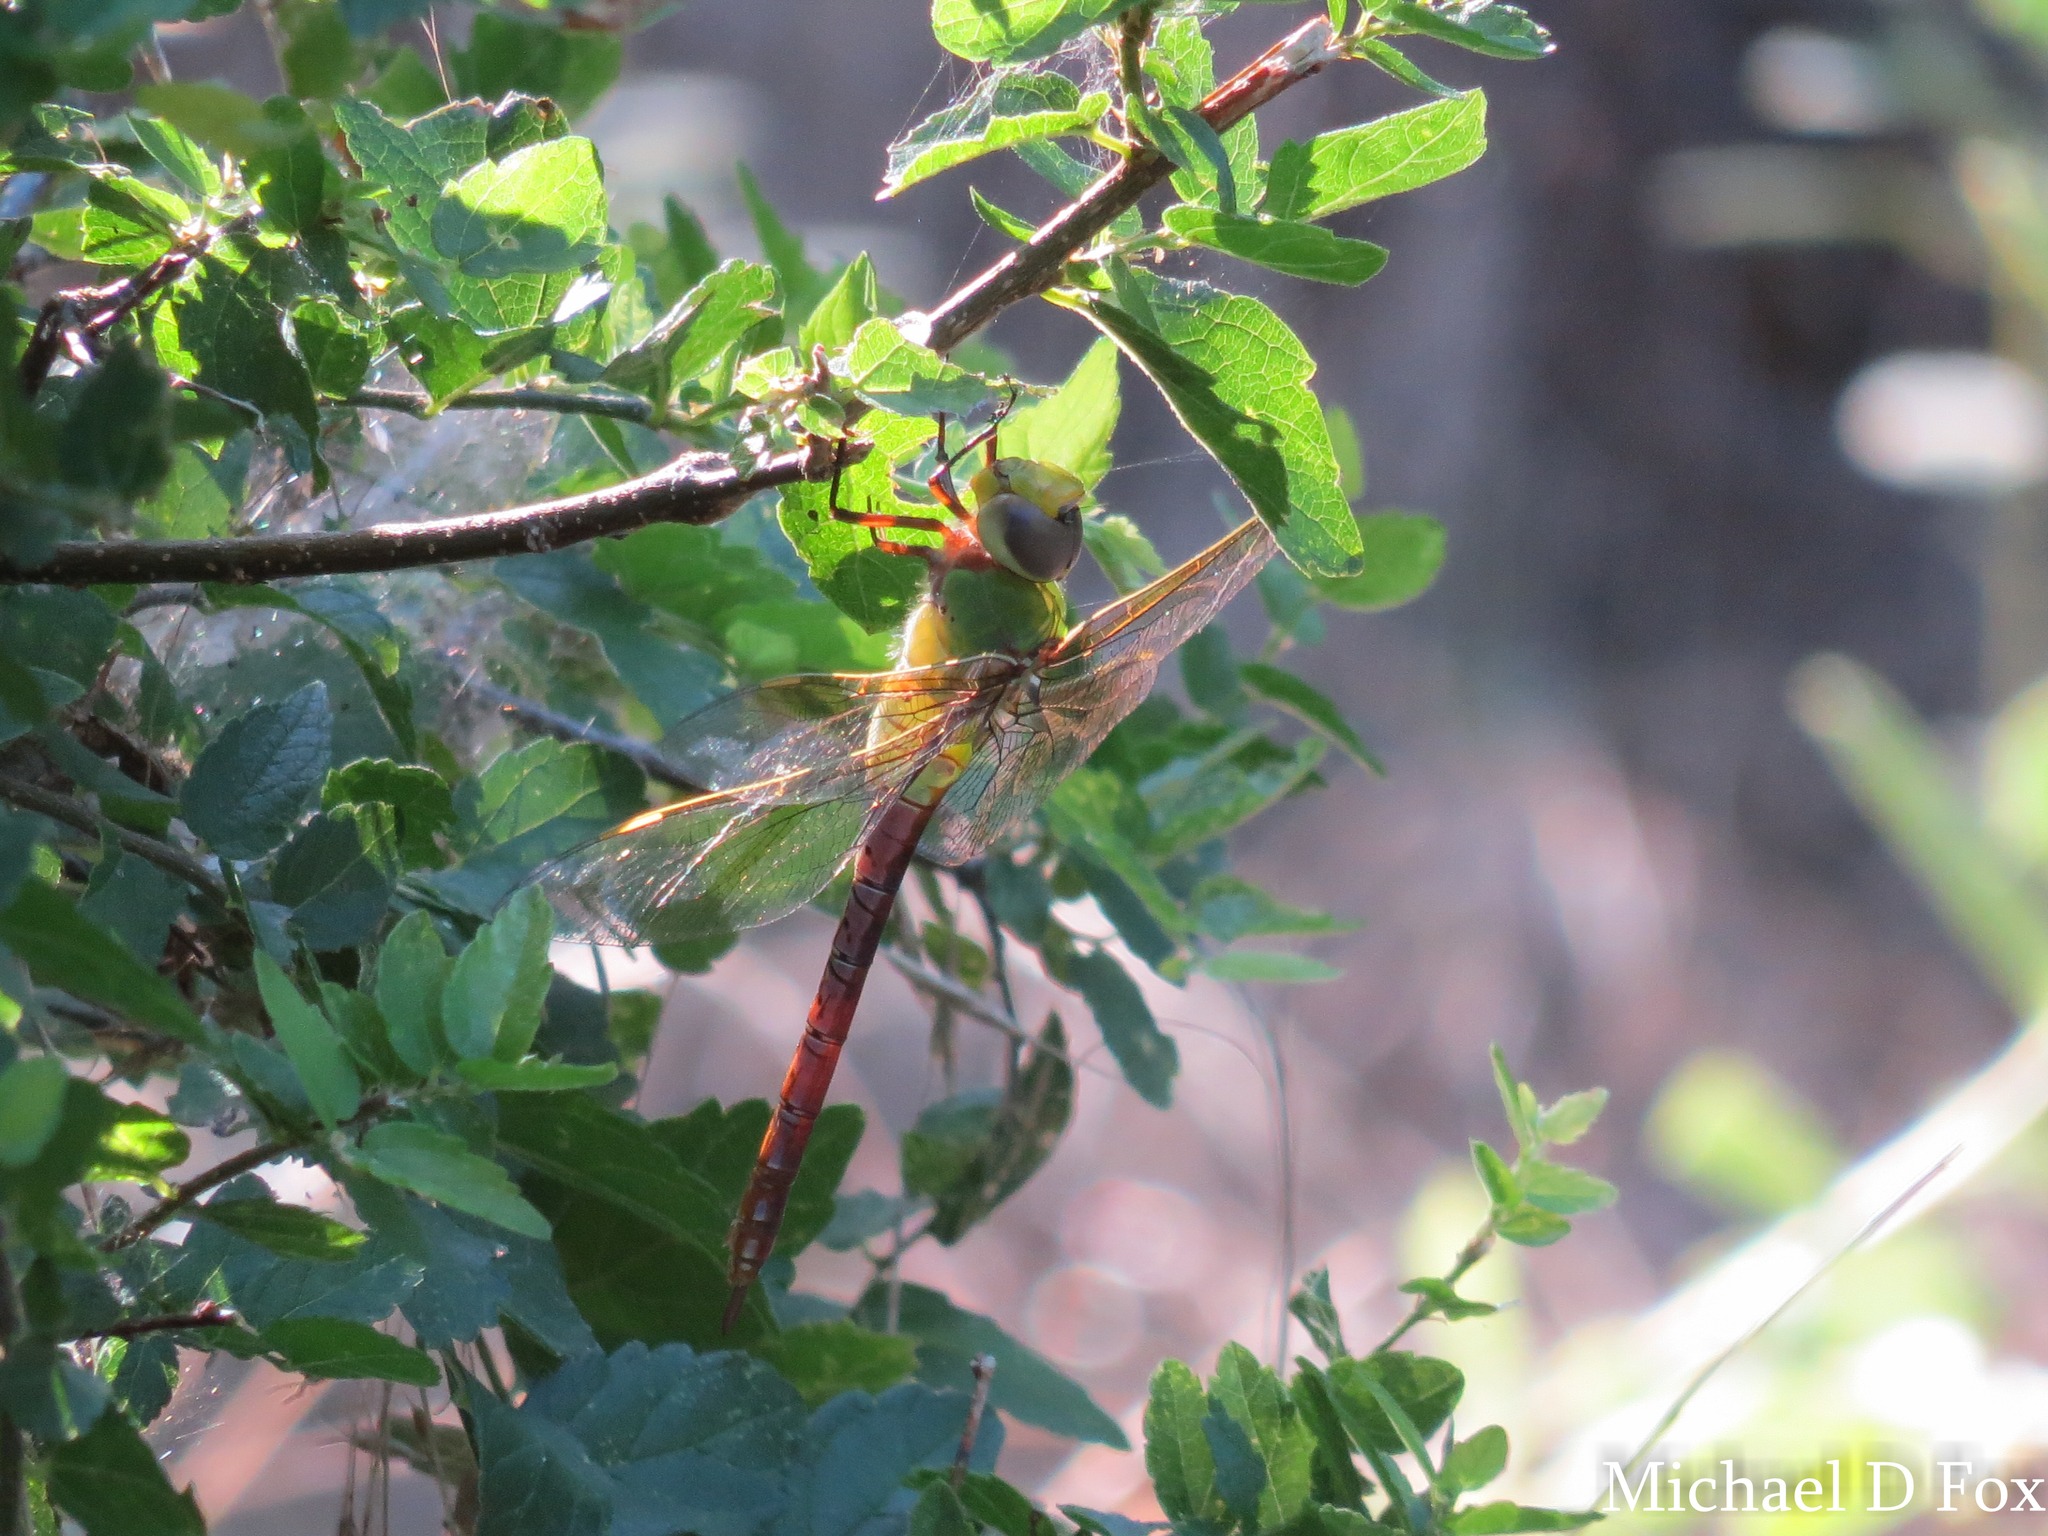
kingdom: Animalia
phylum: Arthropoda
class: Insecta
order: Odonata
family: Aeshnidae
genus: Anax
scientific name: Anax junius
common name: Common green darner
